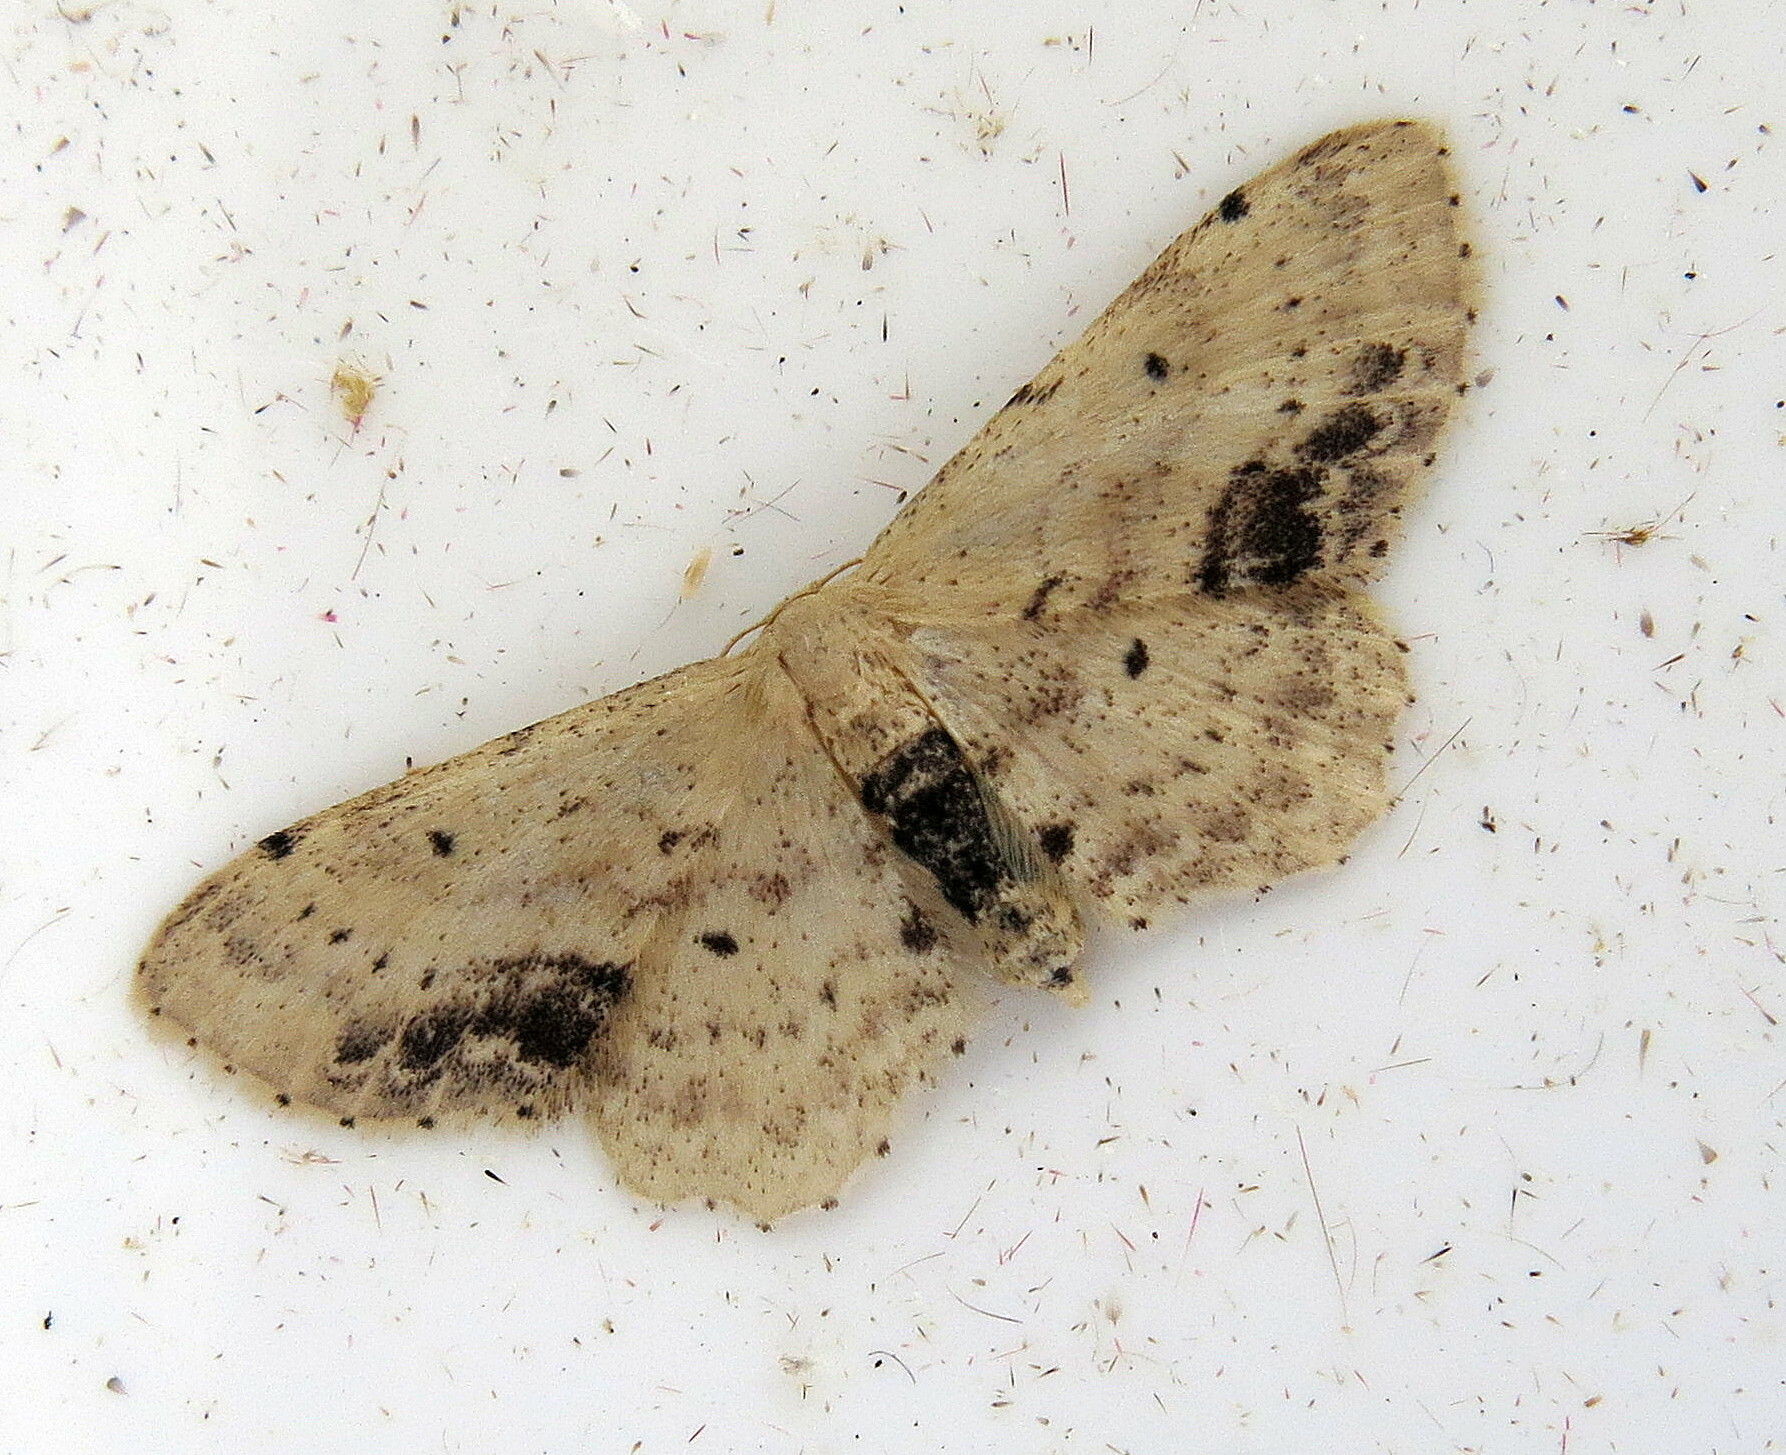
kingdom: Animalia
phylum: Arthropoda
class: Insecta
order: Lepidoptera
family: Geometridae
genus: Idaea
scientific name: Idaea dimidiata
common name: Single-dotted wave
